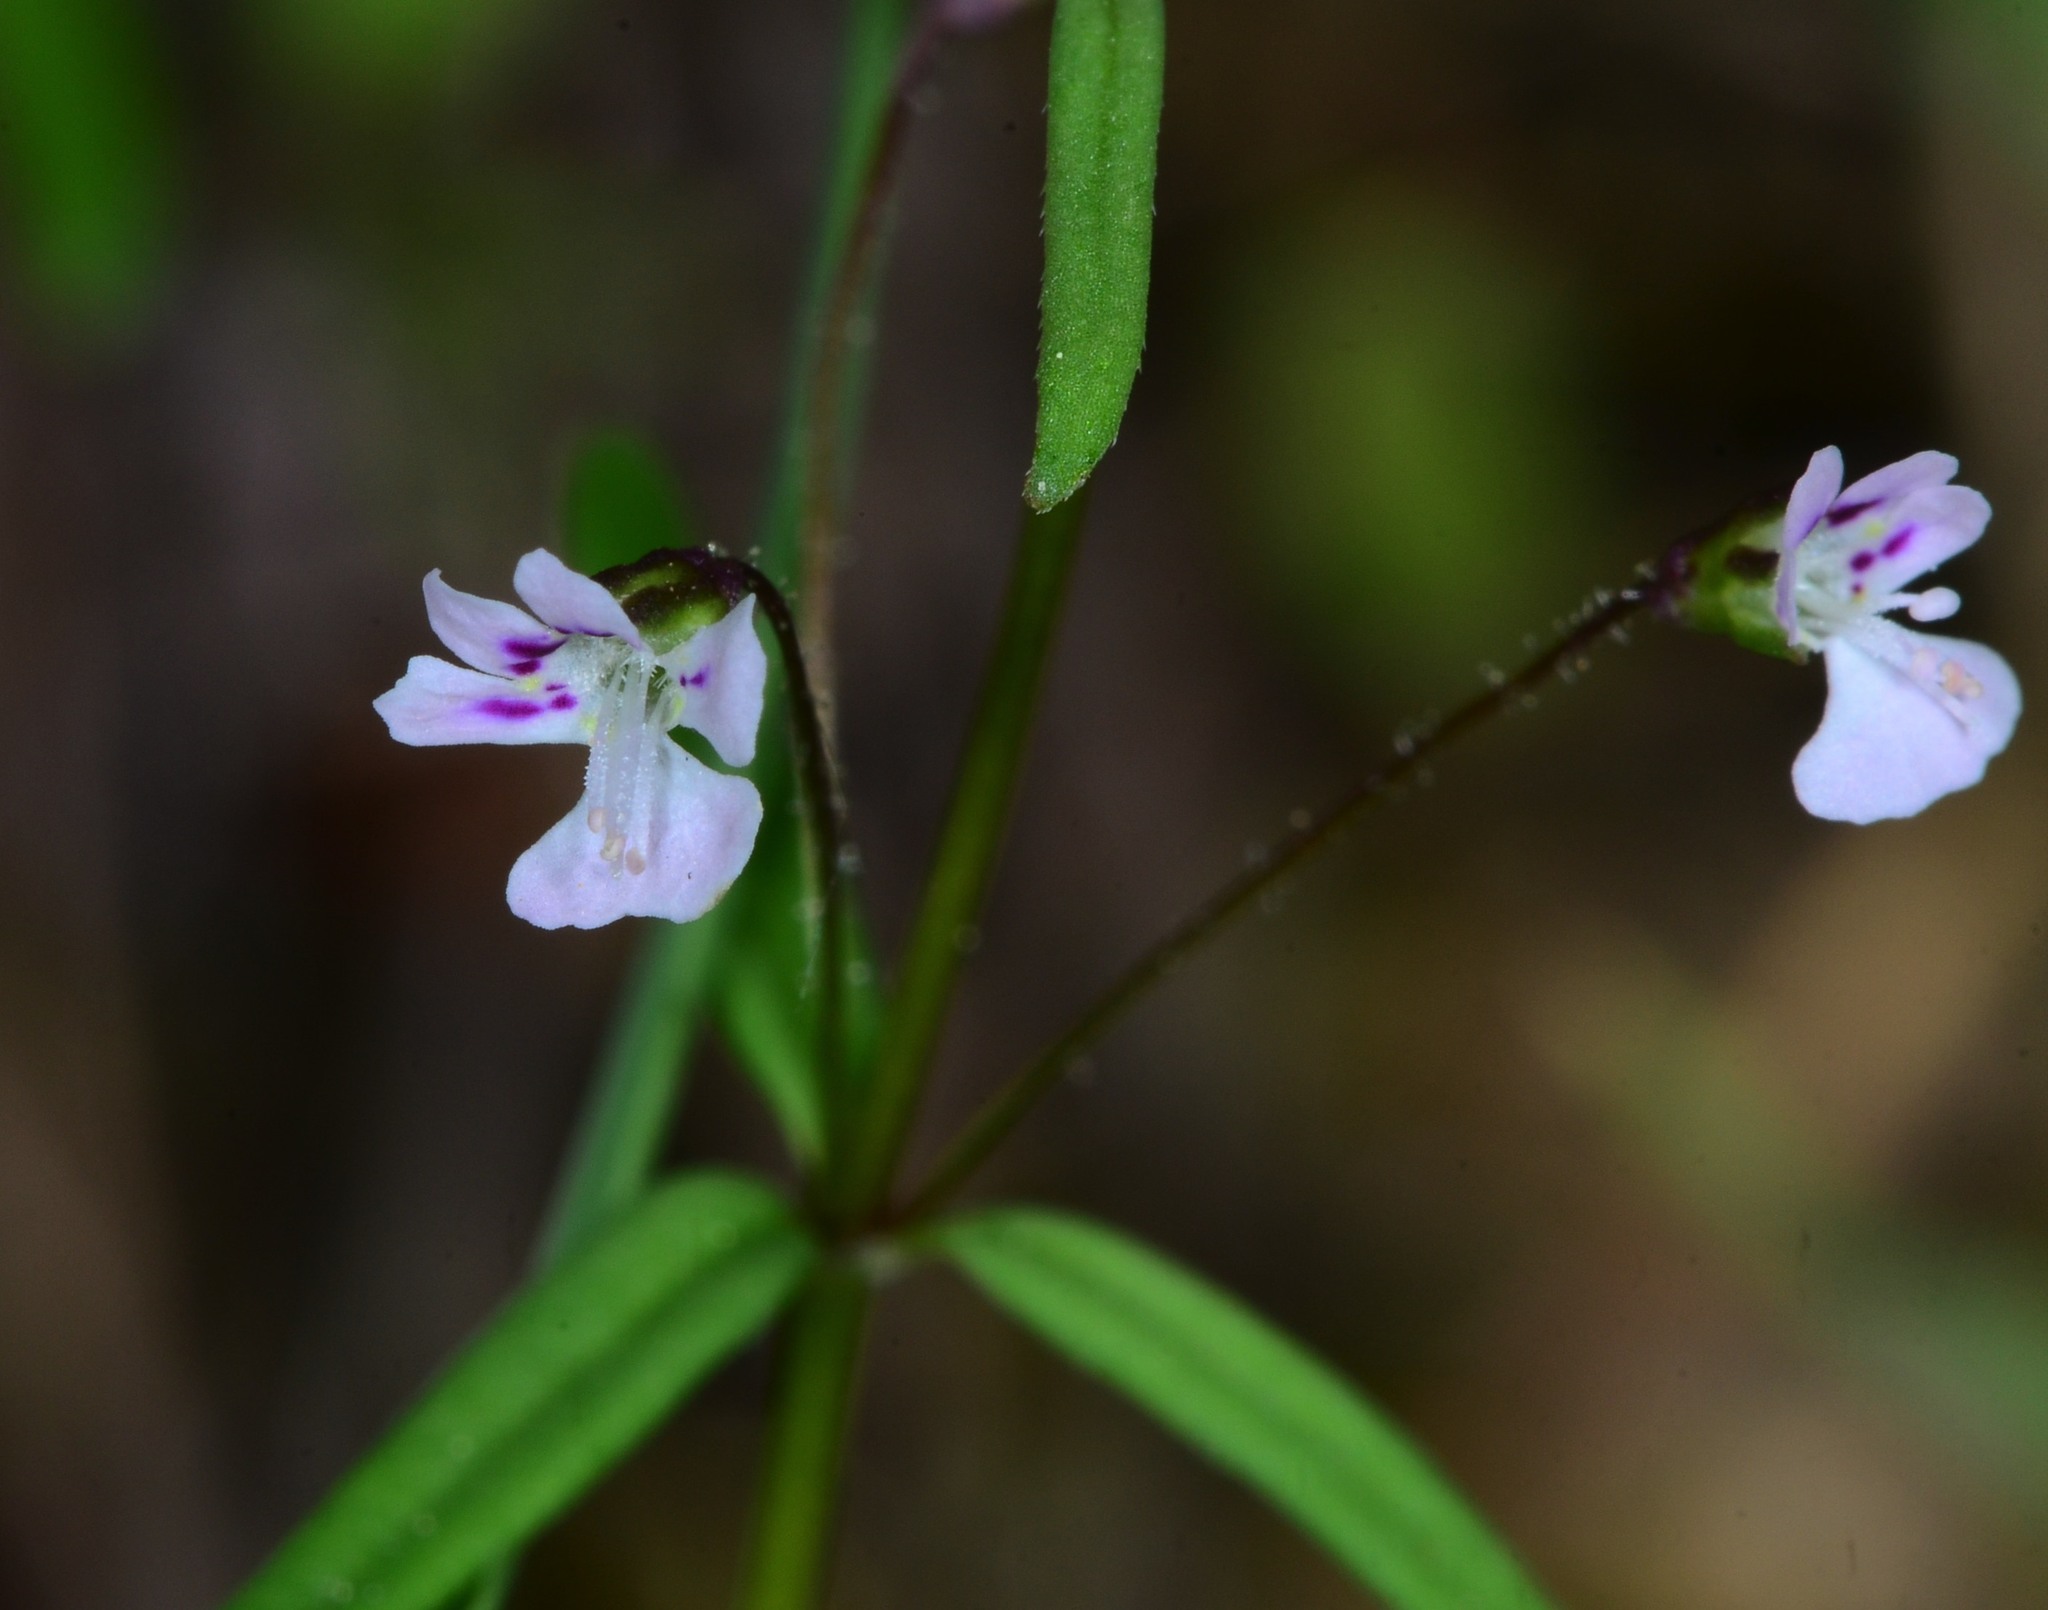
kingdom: Plantae
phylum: Tracheophyta
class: Magnoliopsida
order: Lamiales
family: Plantaginaceae
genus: Tonella
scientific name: Tonella tenella
